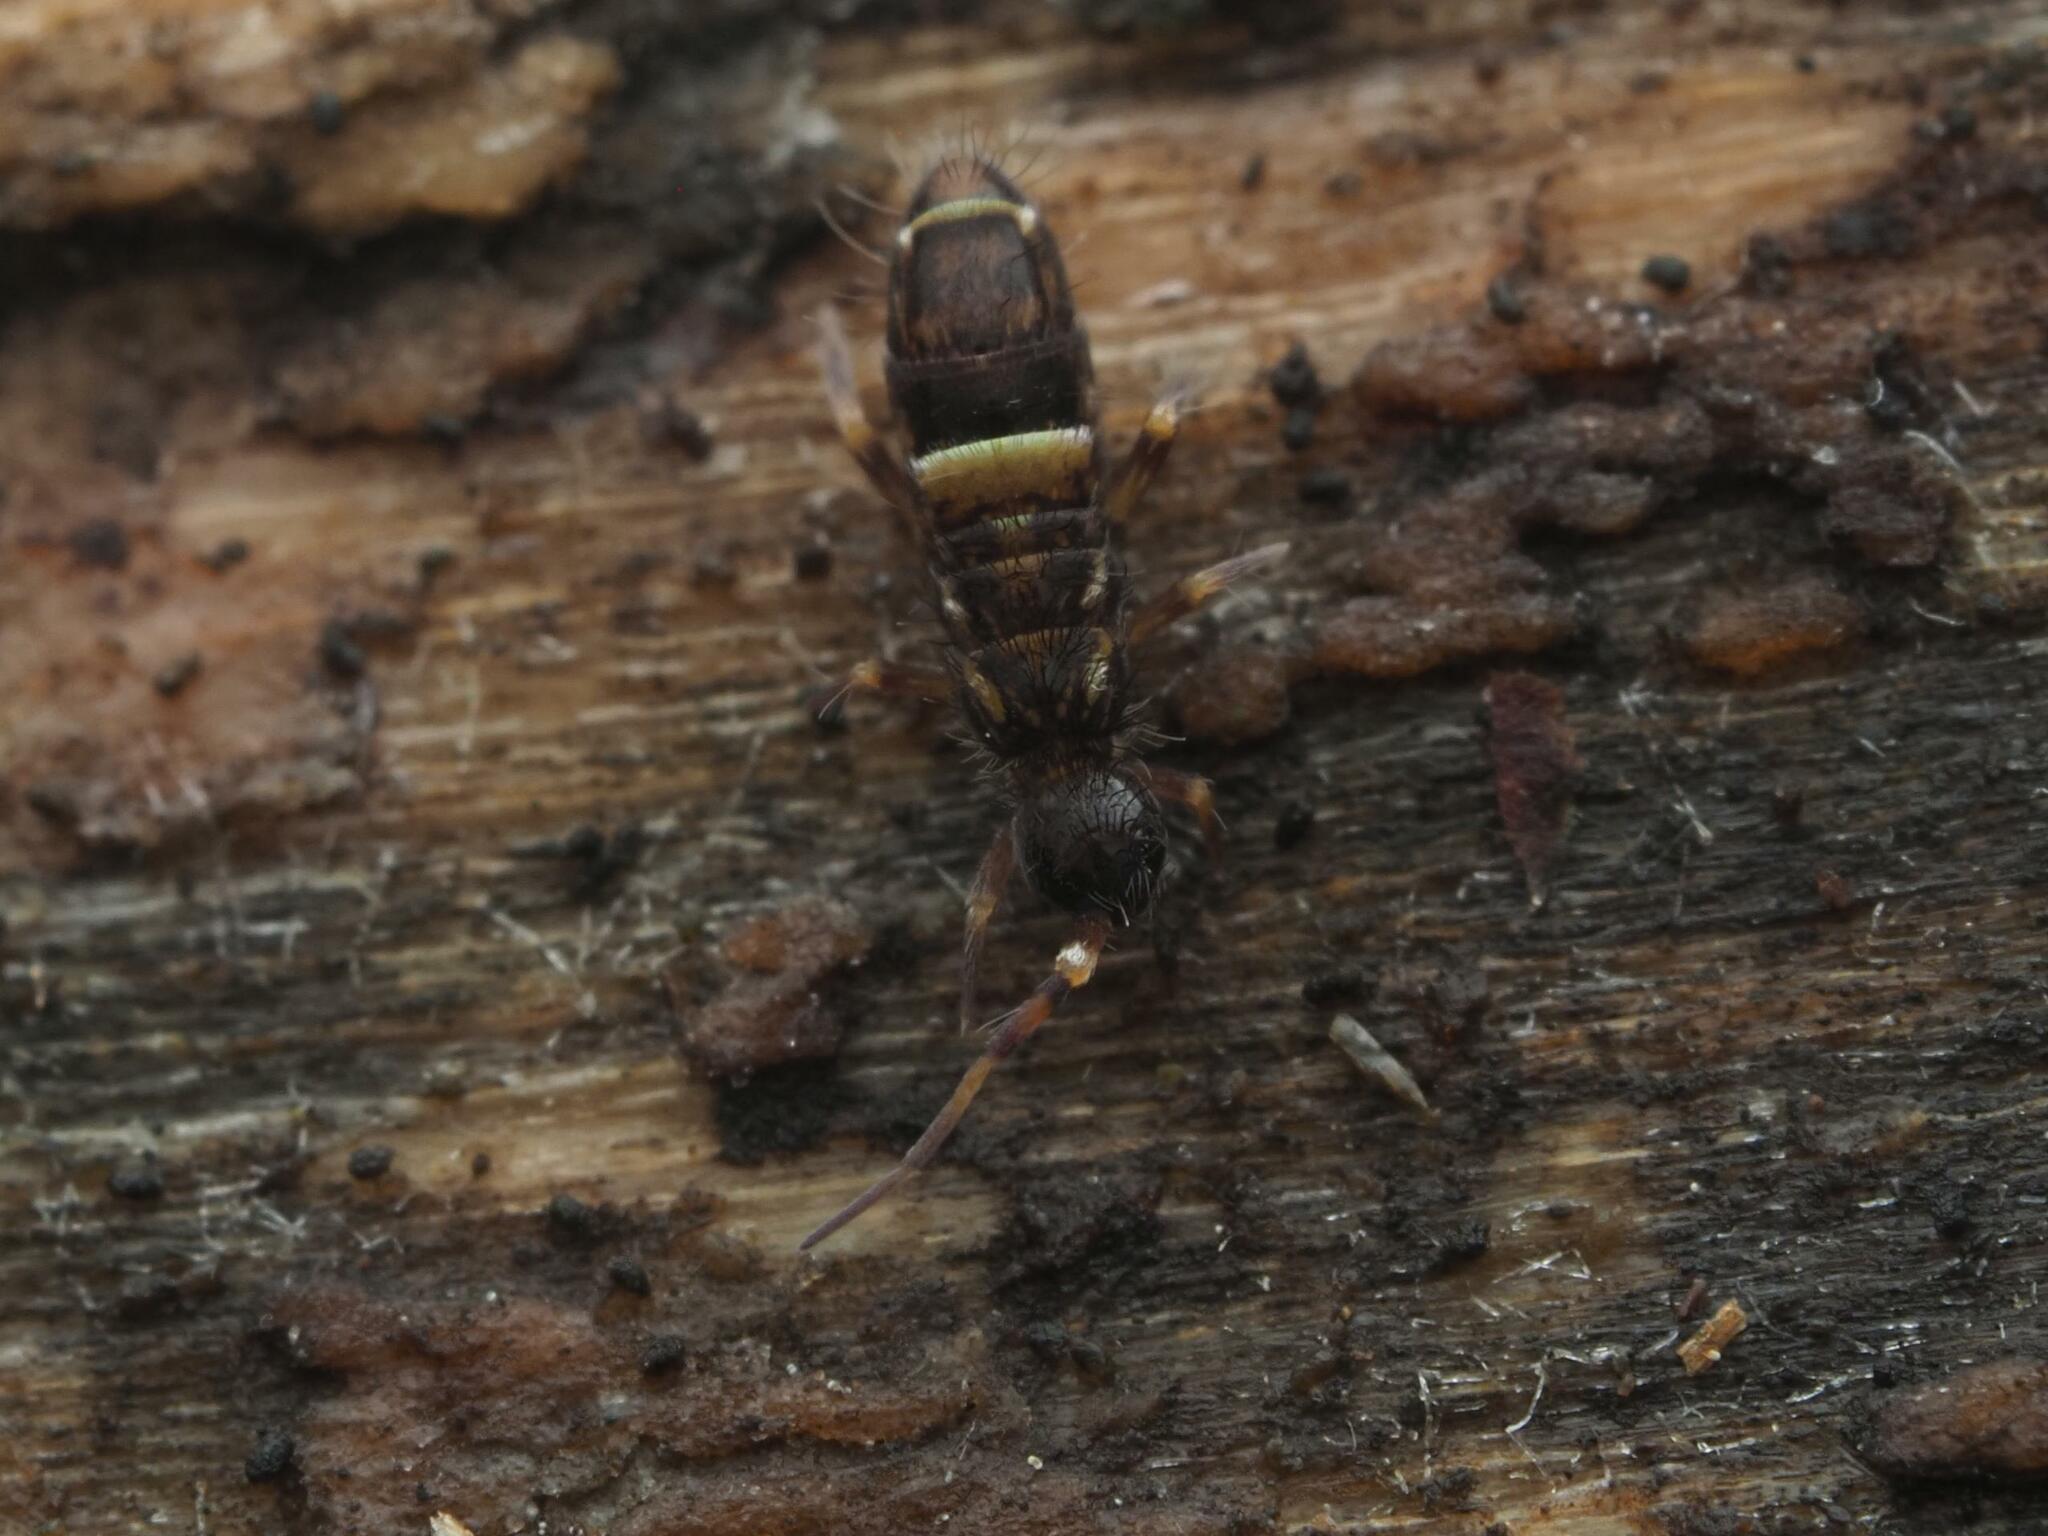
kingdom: Animalia
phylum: Arthropoda
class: Collembola
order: Entomobryomorpha
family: Orchesellidae
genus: Orchesella
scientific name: Orchesella cincta
